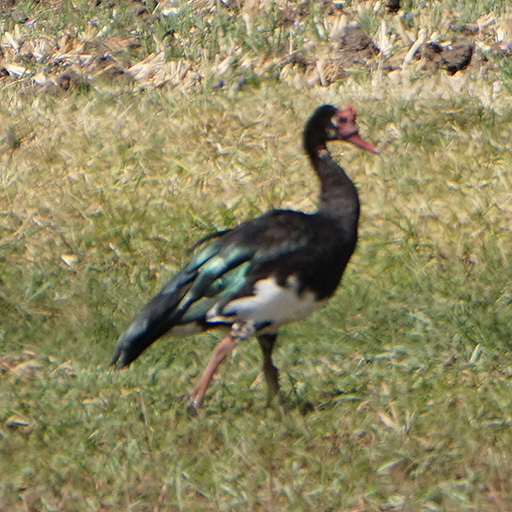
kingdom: Animalia
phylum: Chordata
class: Aves
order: Anseriformes
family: Anatidae
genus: Plectropterus
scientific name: Plectropterus gambensis
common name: Spur-winged goose
